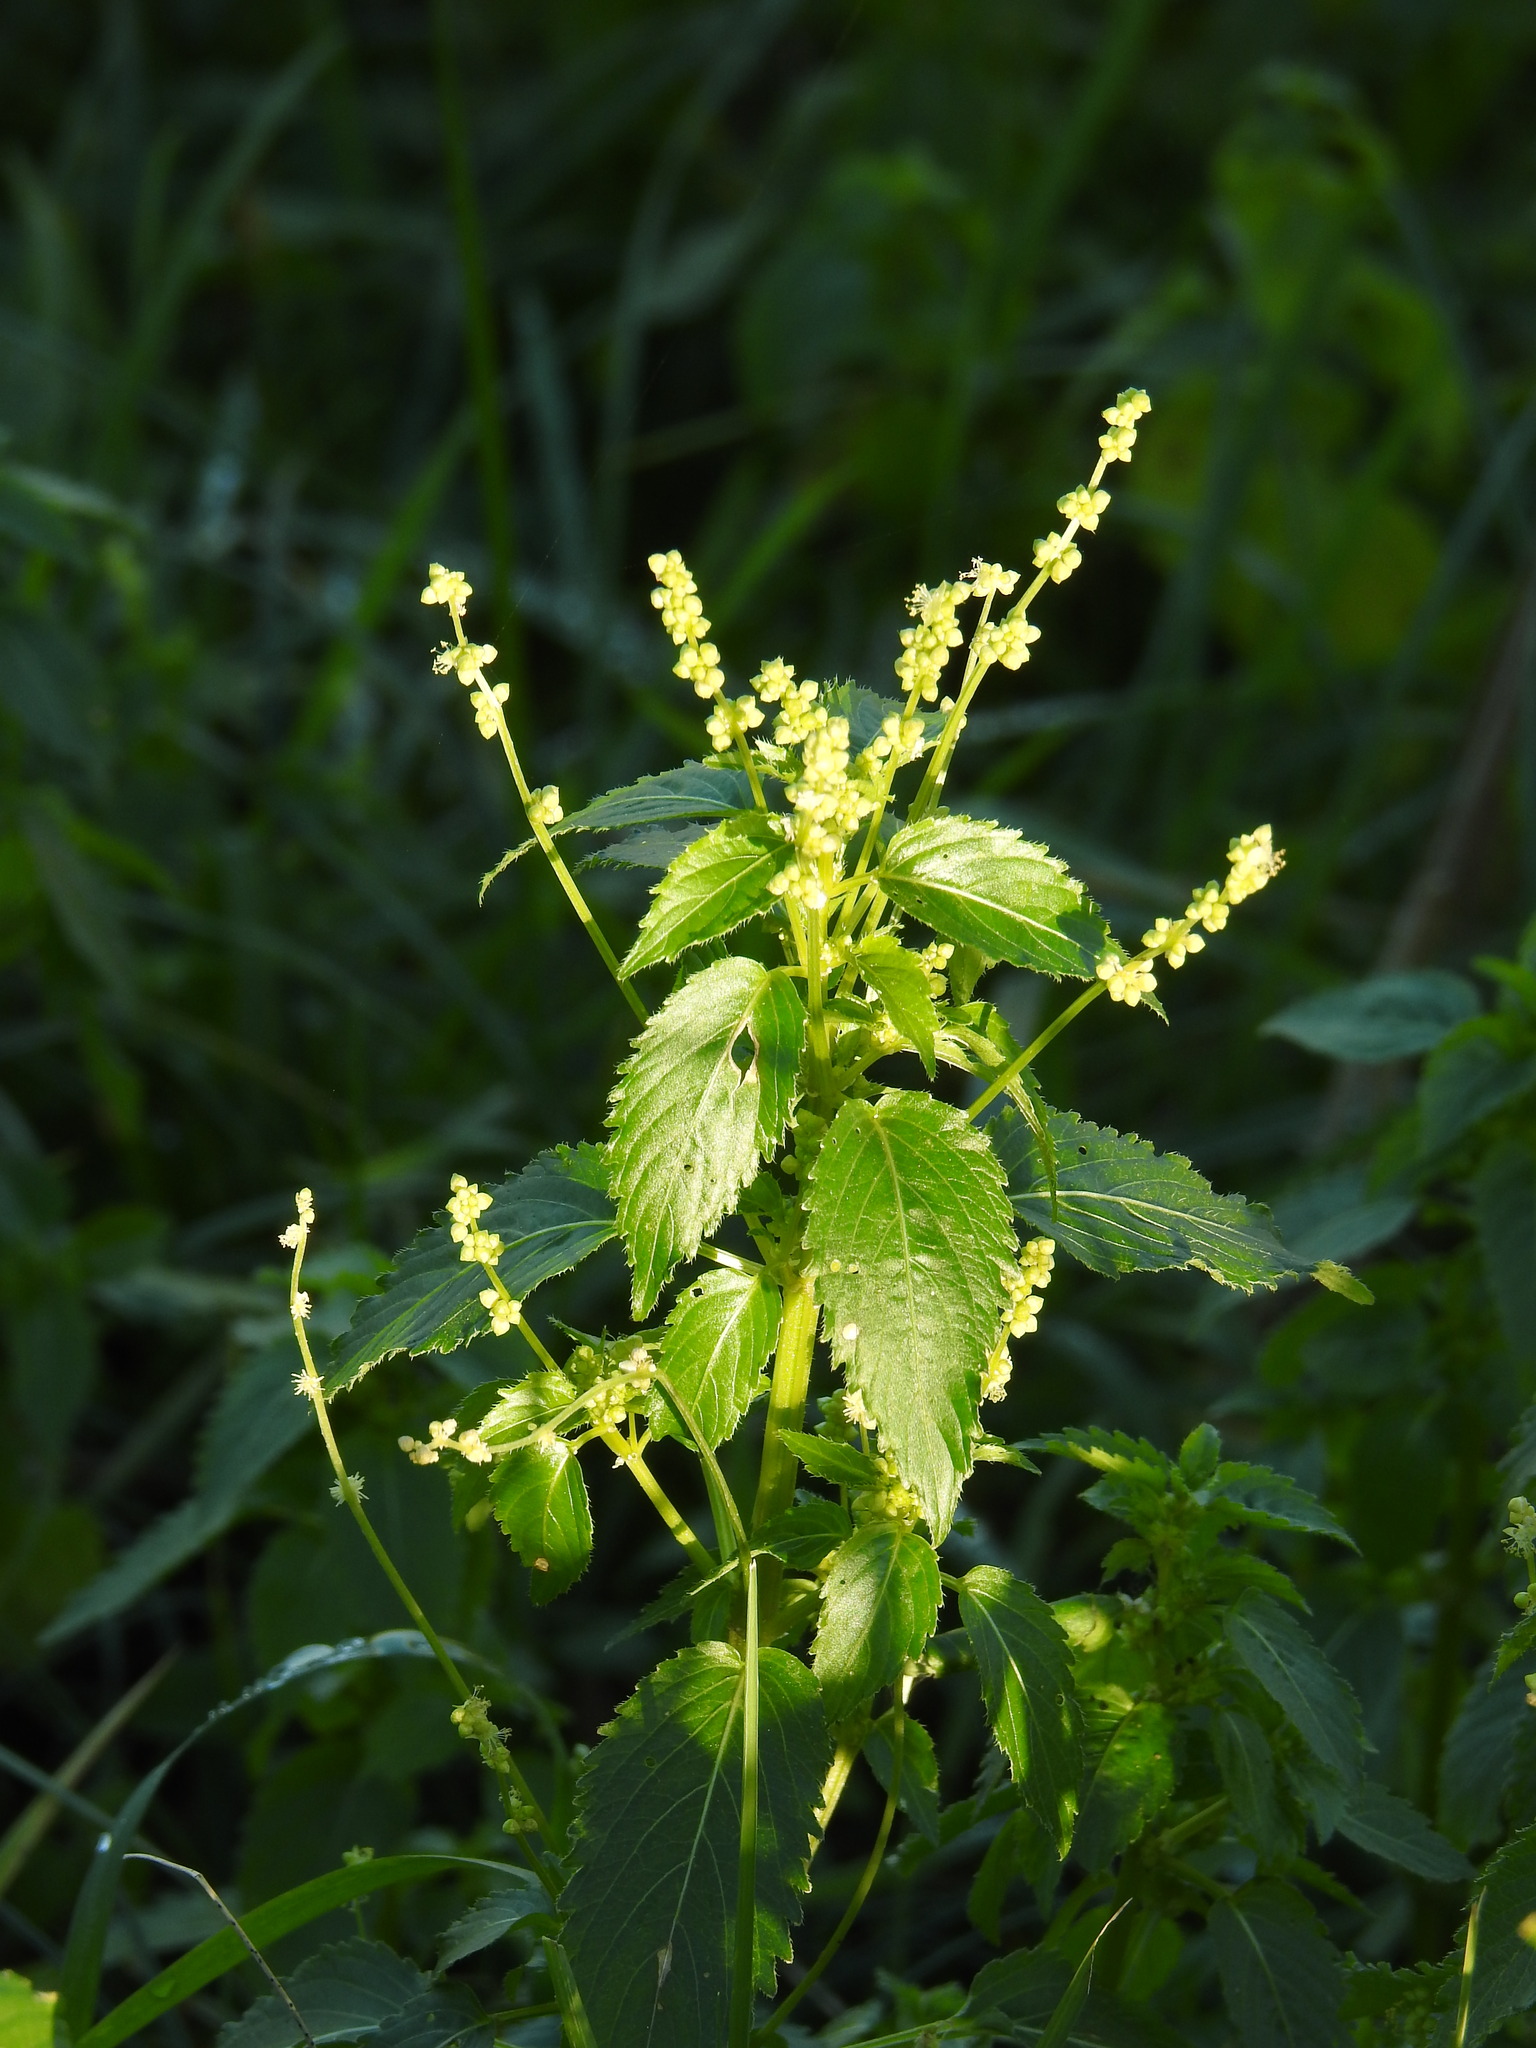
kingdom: Plantae
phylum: Tracheophyta
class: Magnoliopsida
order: Malpighiales
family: Euphorbiaceae
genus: Mercurialis
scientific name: Mercurialis annua
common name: Annual mercury
